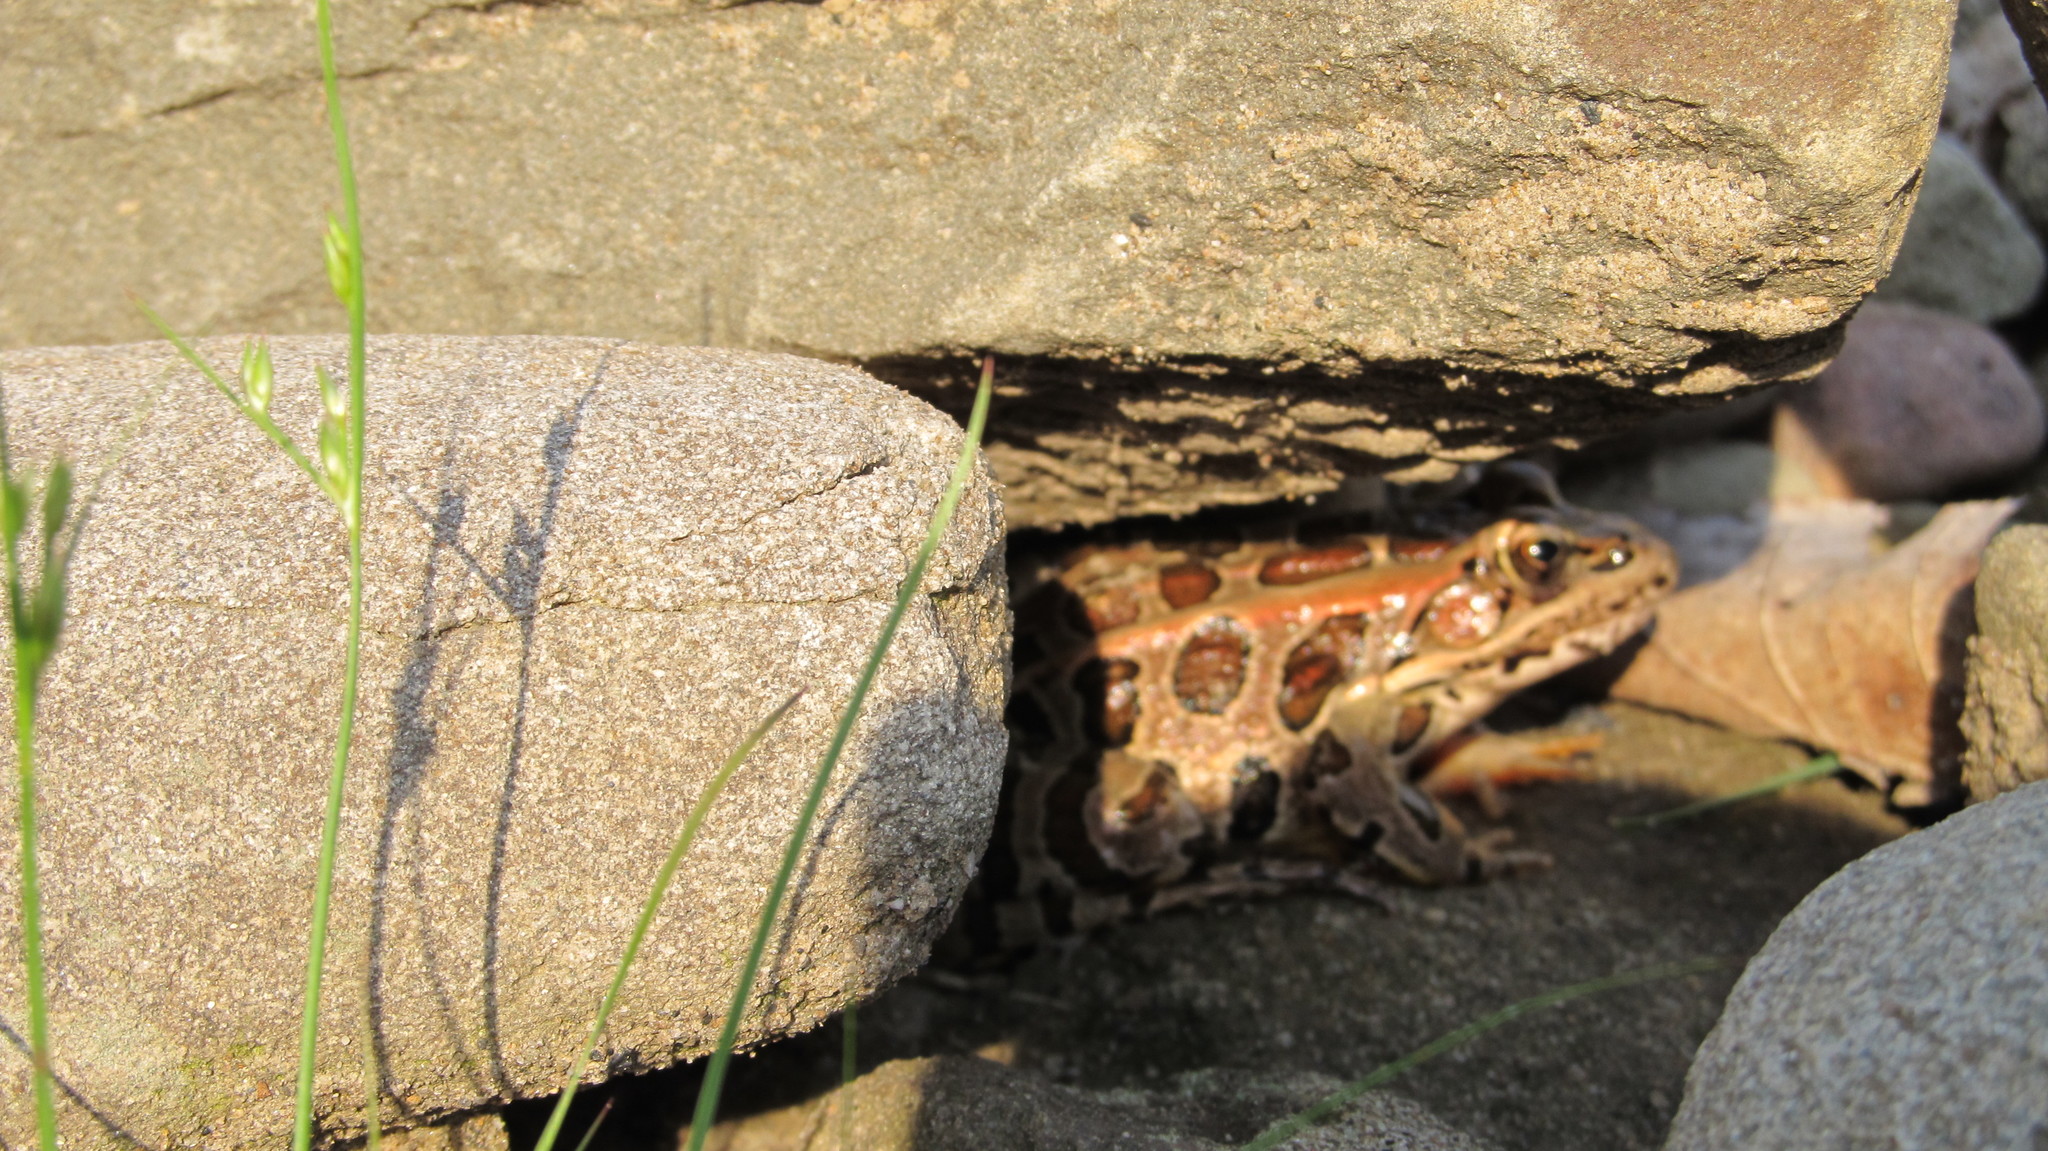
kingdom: Animalia
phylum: Chordata
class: Amphibia
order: Anura
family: Ranidae
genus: Lithobates
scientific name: Lithobates palustris
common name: Pickerel frog
